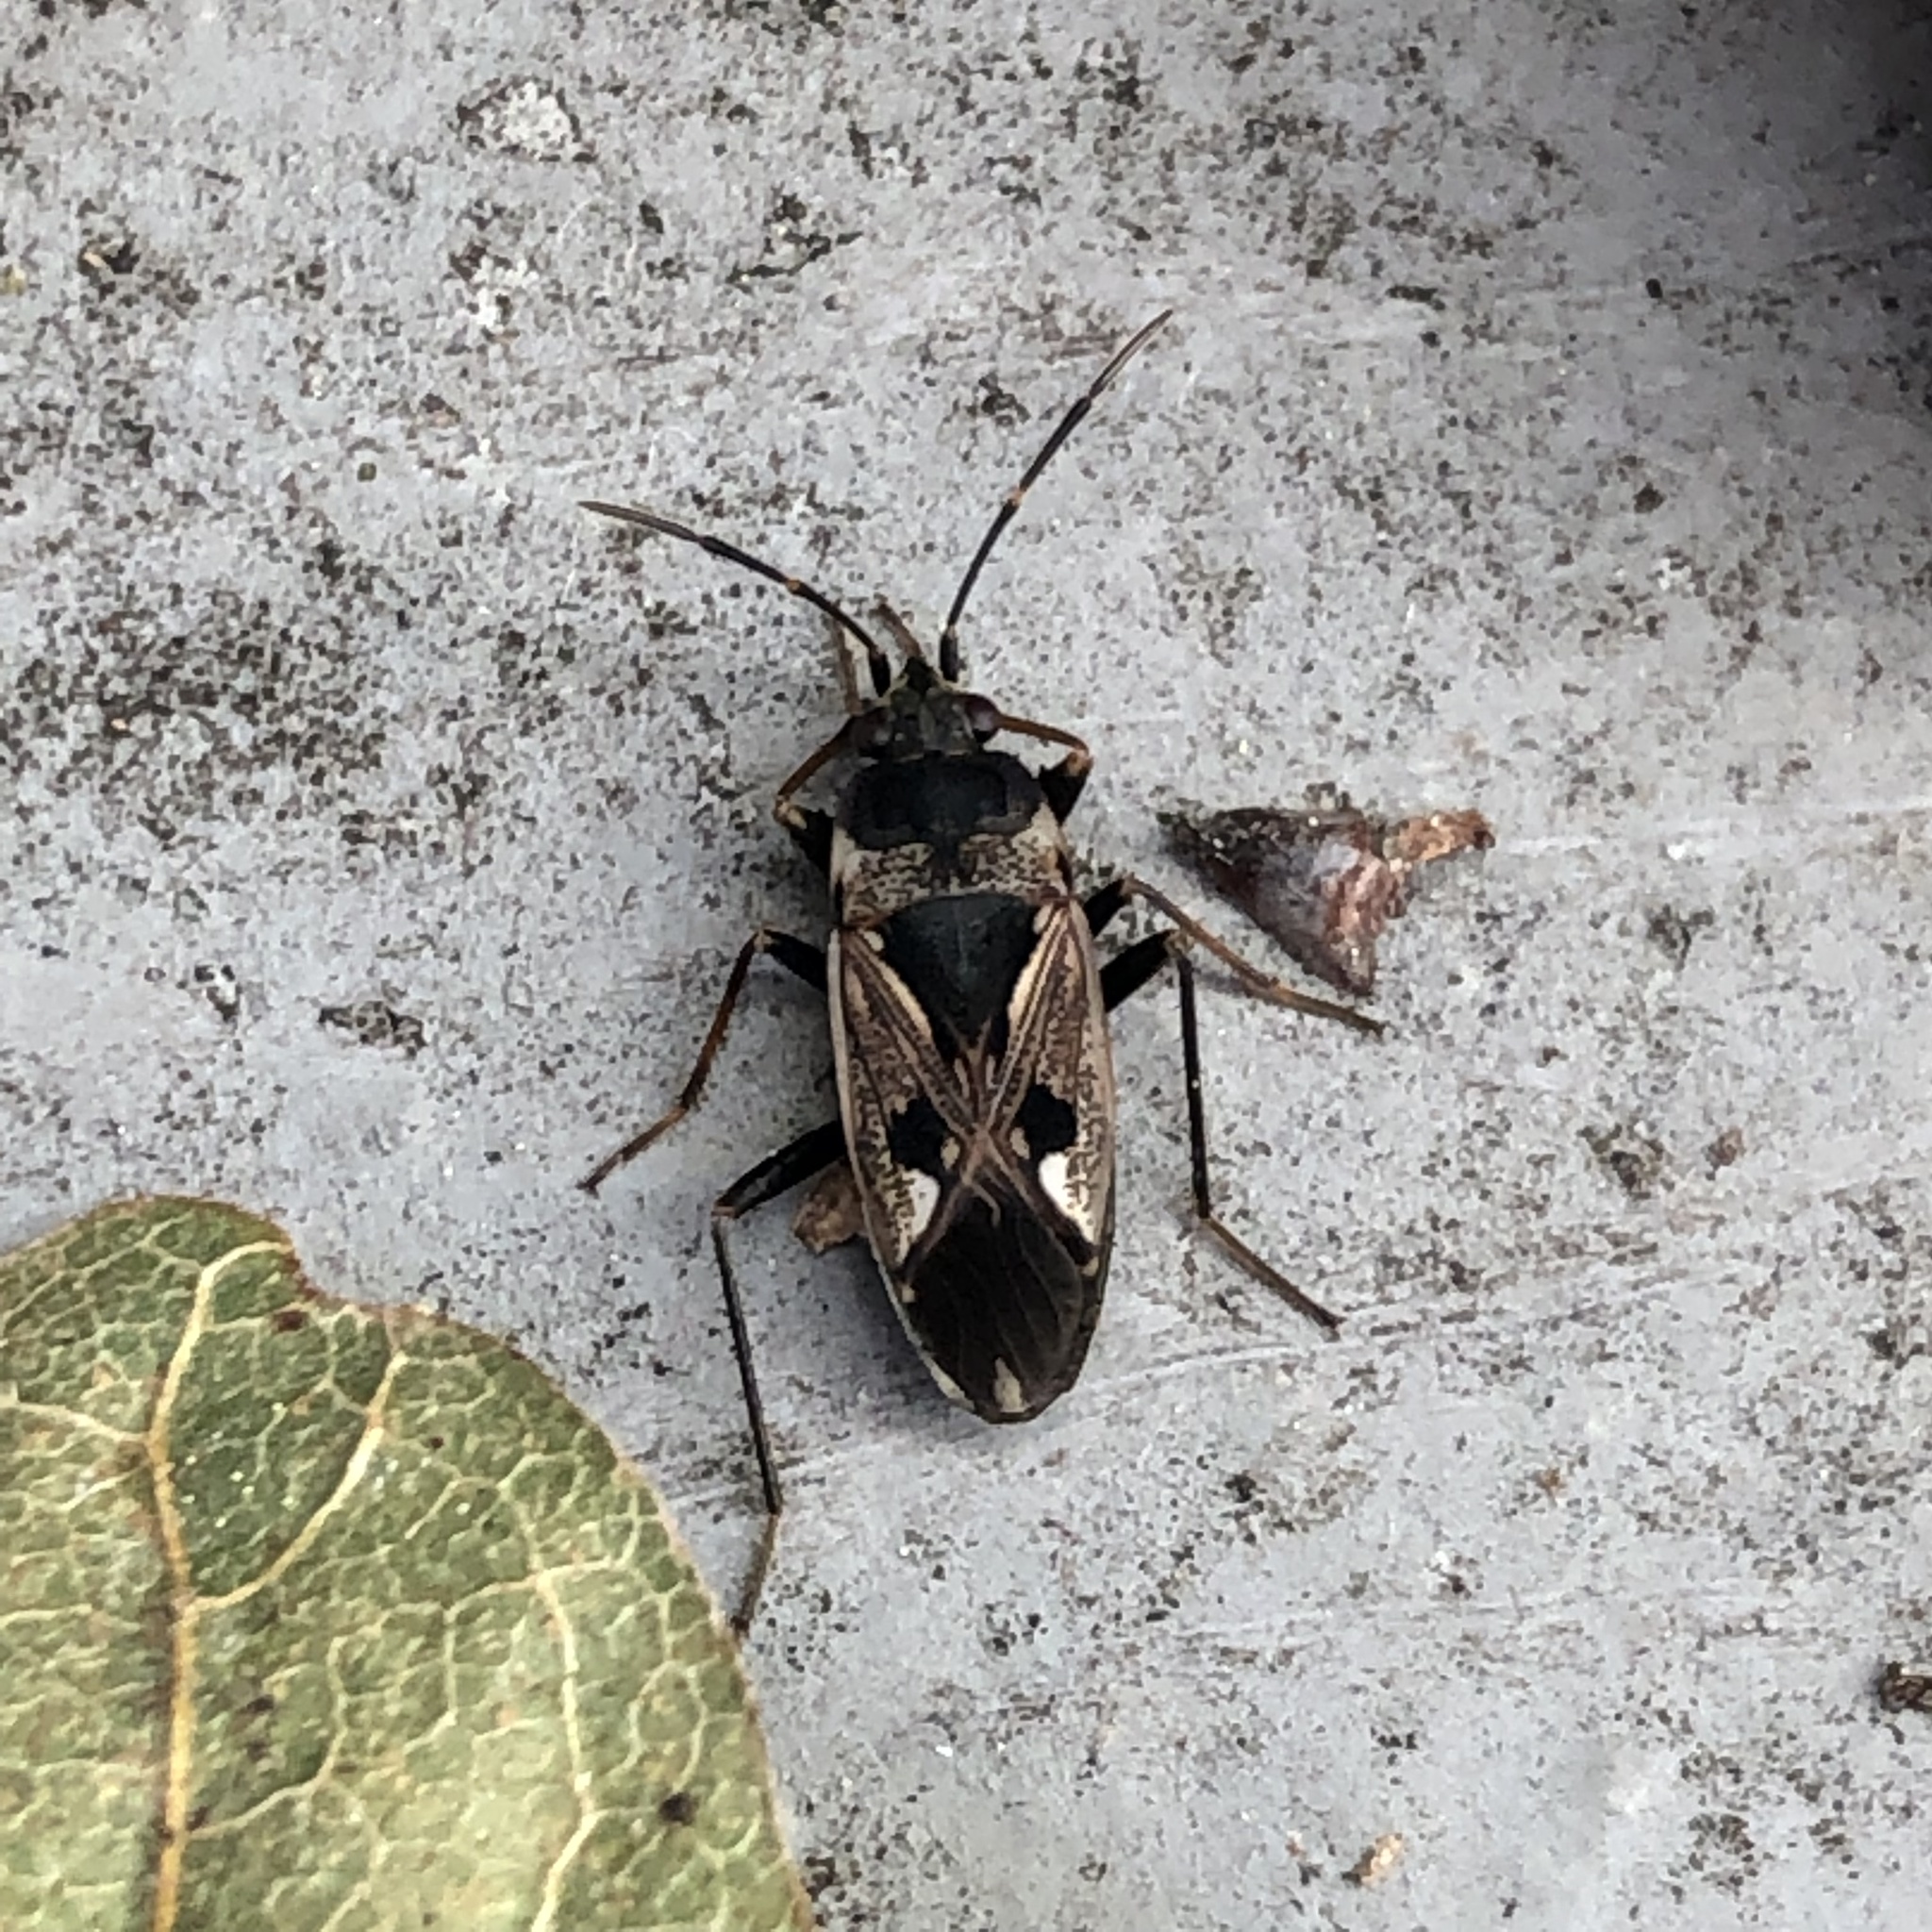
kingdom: Animalia
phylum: Arthropoda
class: Insecta
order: Hemiptera
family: Rhyparochromidae
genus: Rhyparochromus
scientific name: Rhyparochromus vulgaris
